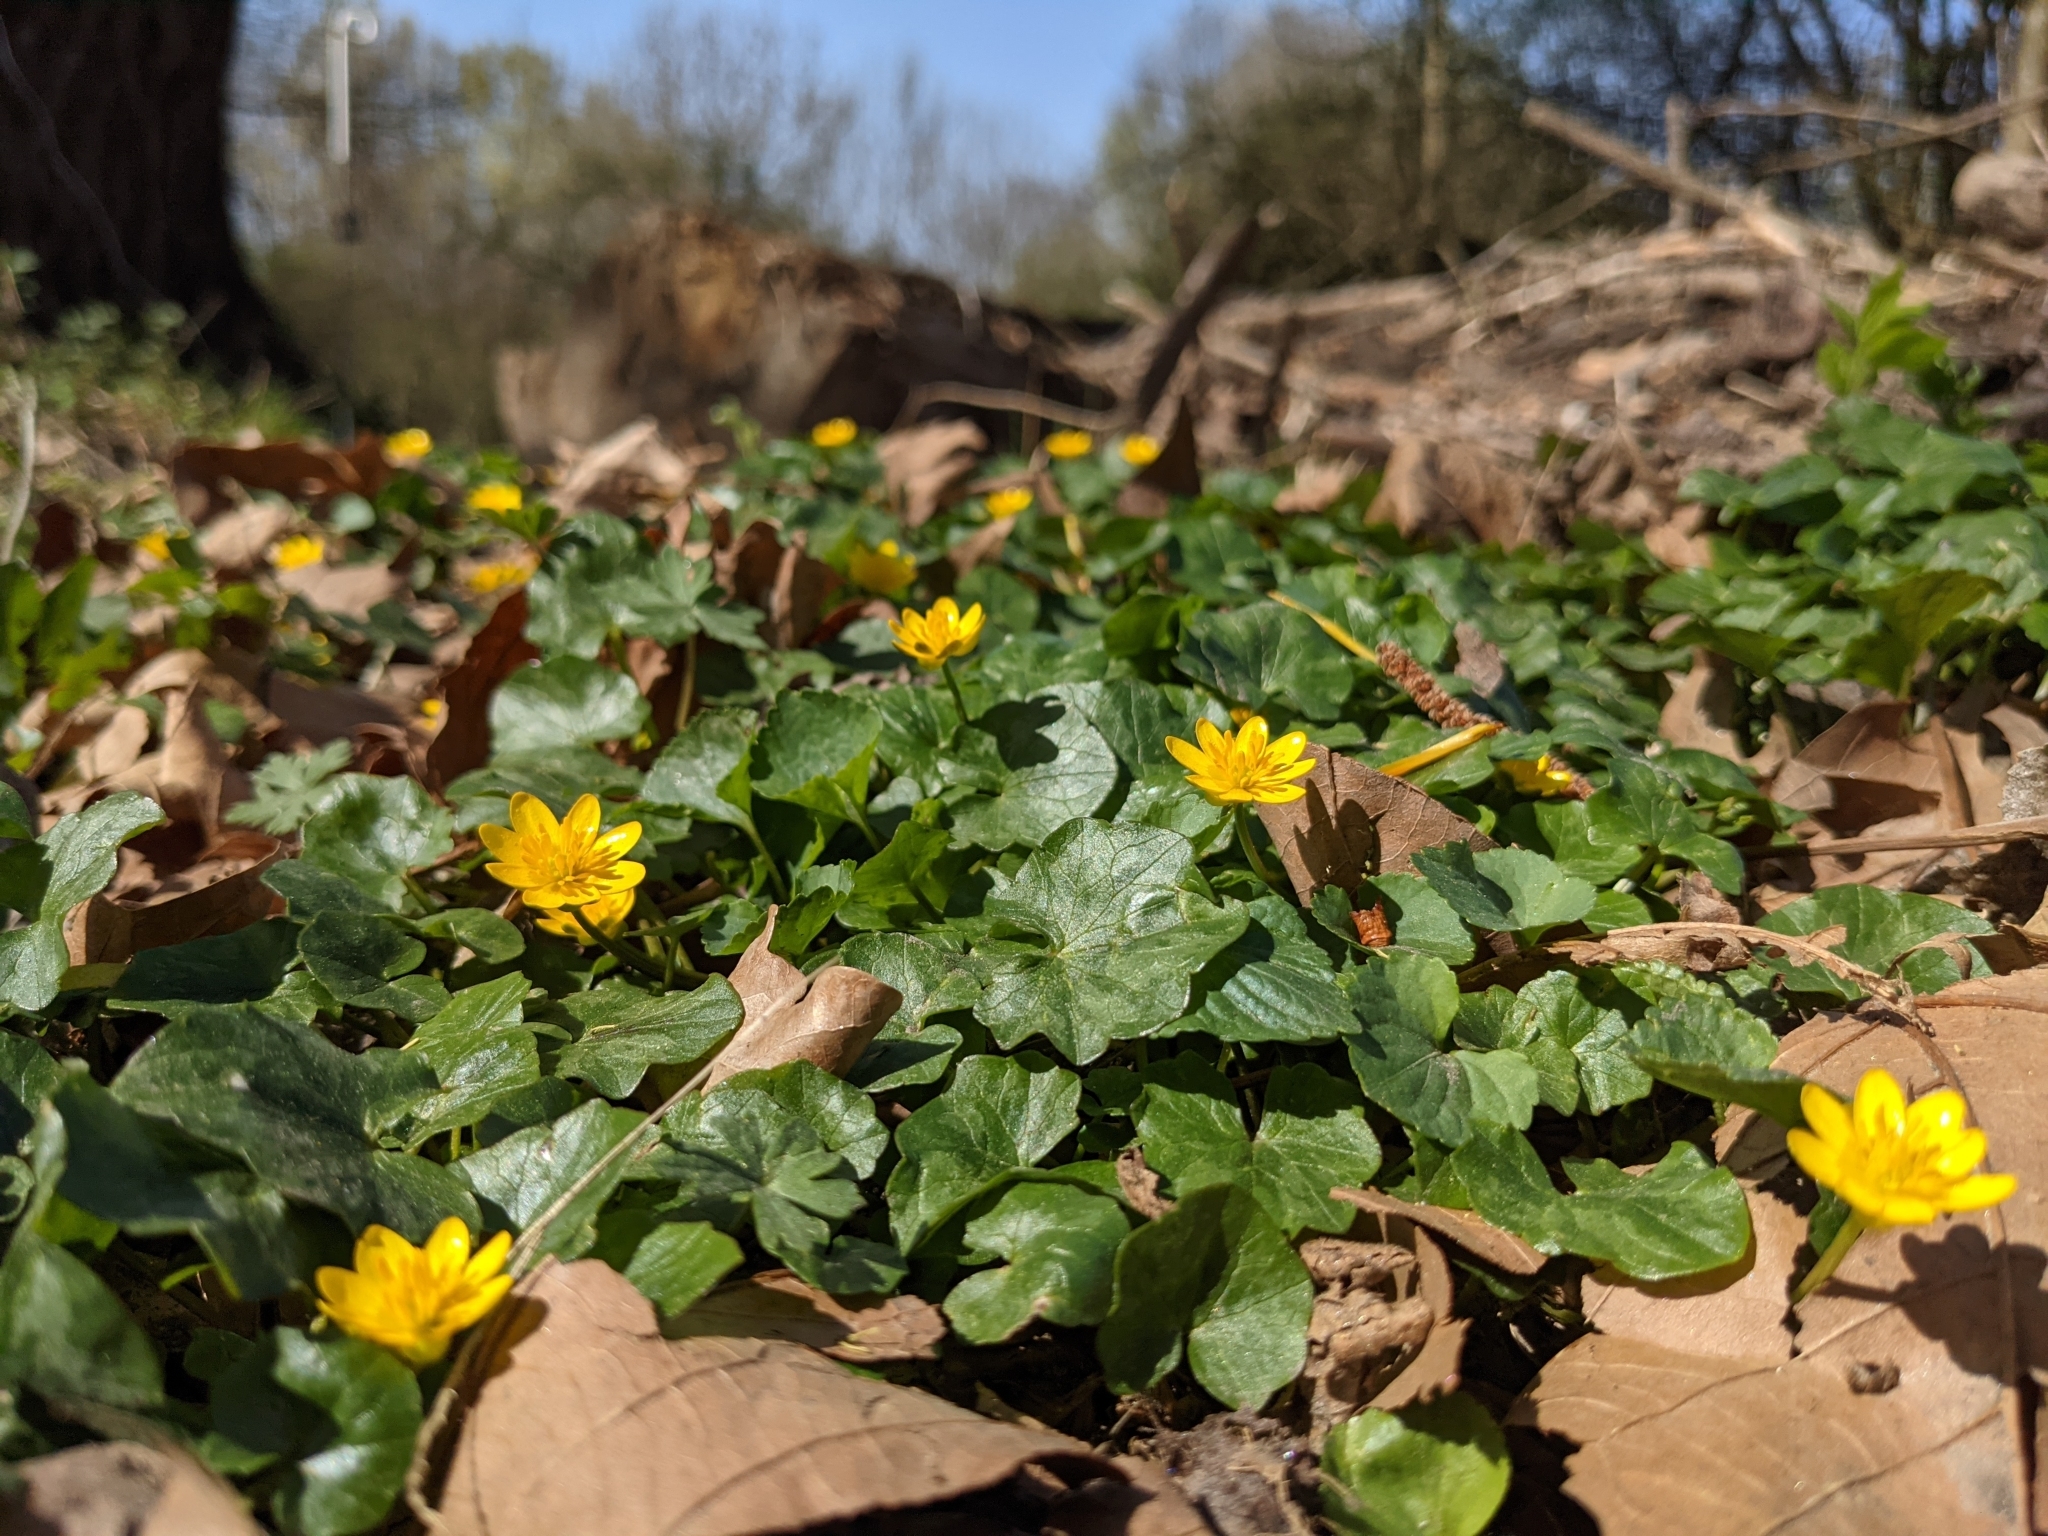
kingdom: Plantae
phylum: Tracheophyta
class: Magnoliopsida
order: Ranunculales
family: Ranunculaceae
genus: Ficaria
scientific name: Ficaria verna
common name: Lesser celandine
